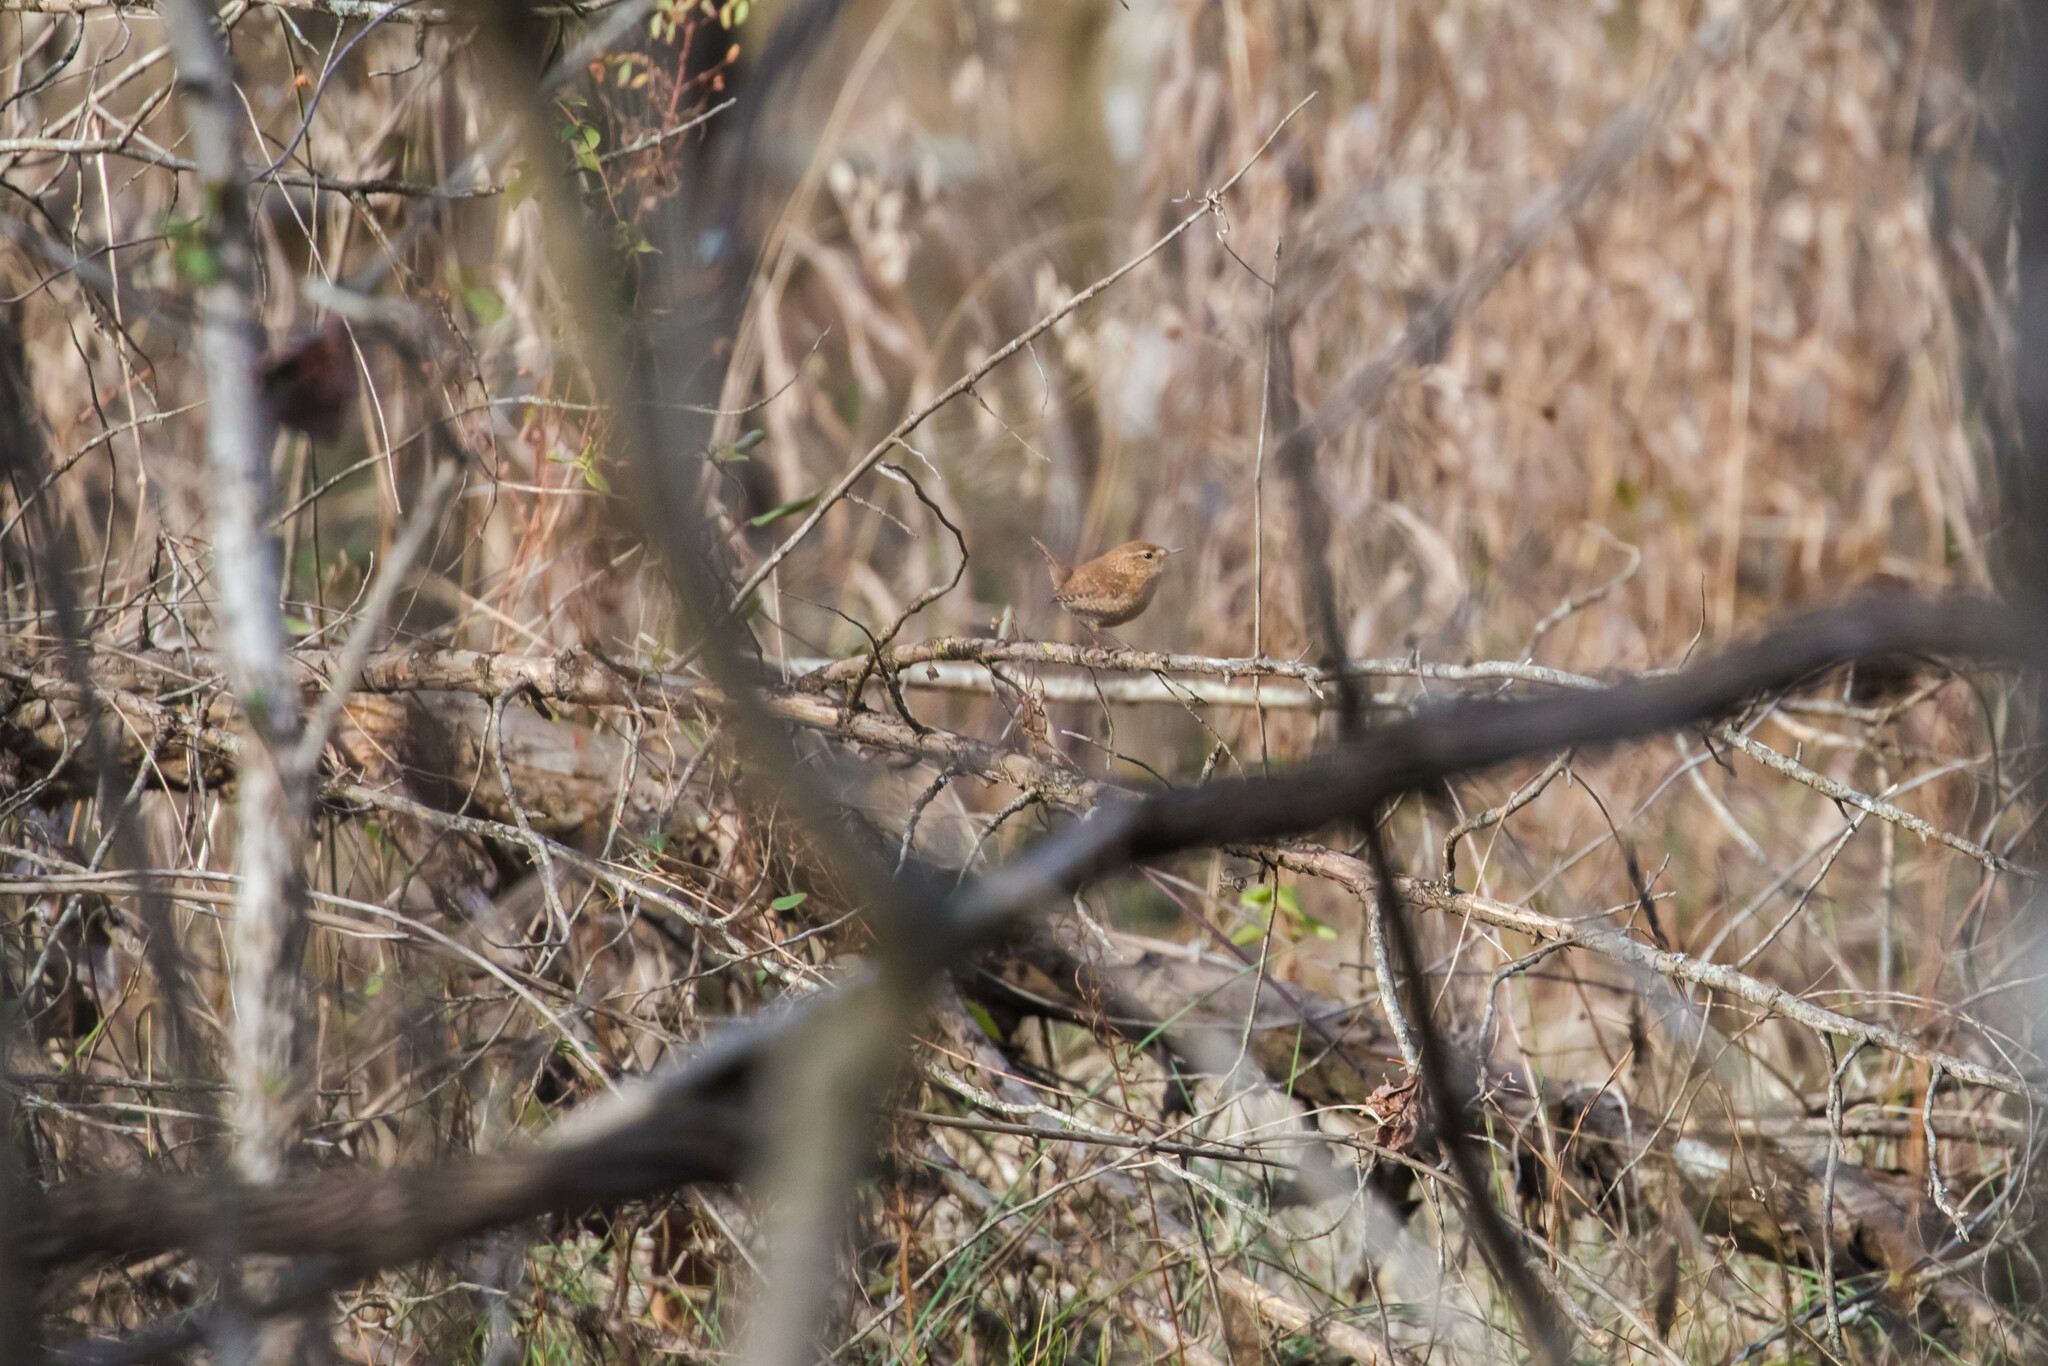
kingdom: Animalia
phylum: Chordata
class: Aves
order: Passeriformes
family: Troglodytidae
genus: Troglodytes
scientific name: Troglodytes hiemalis
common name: Winter wren
